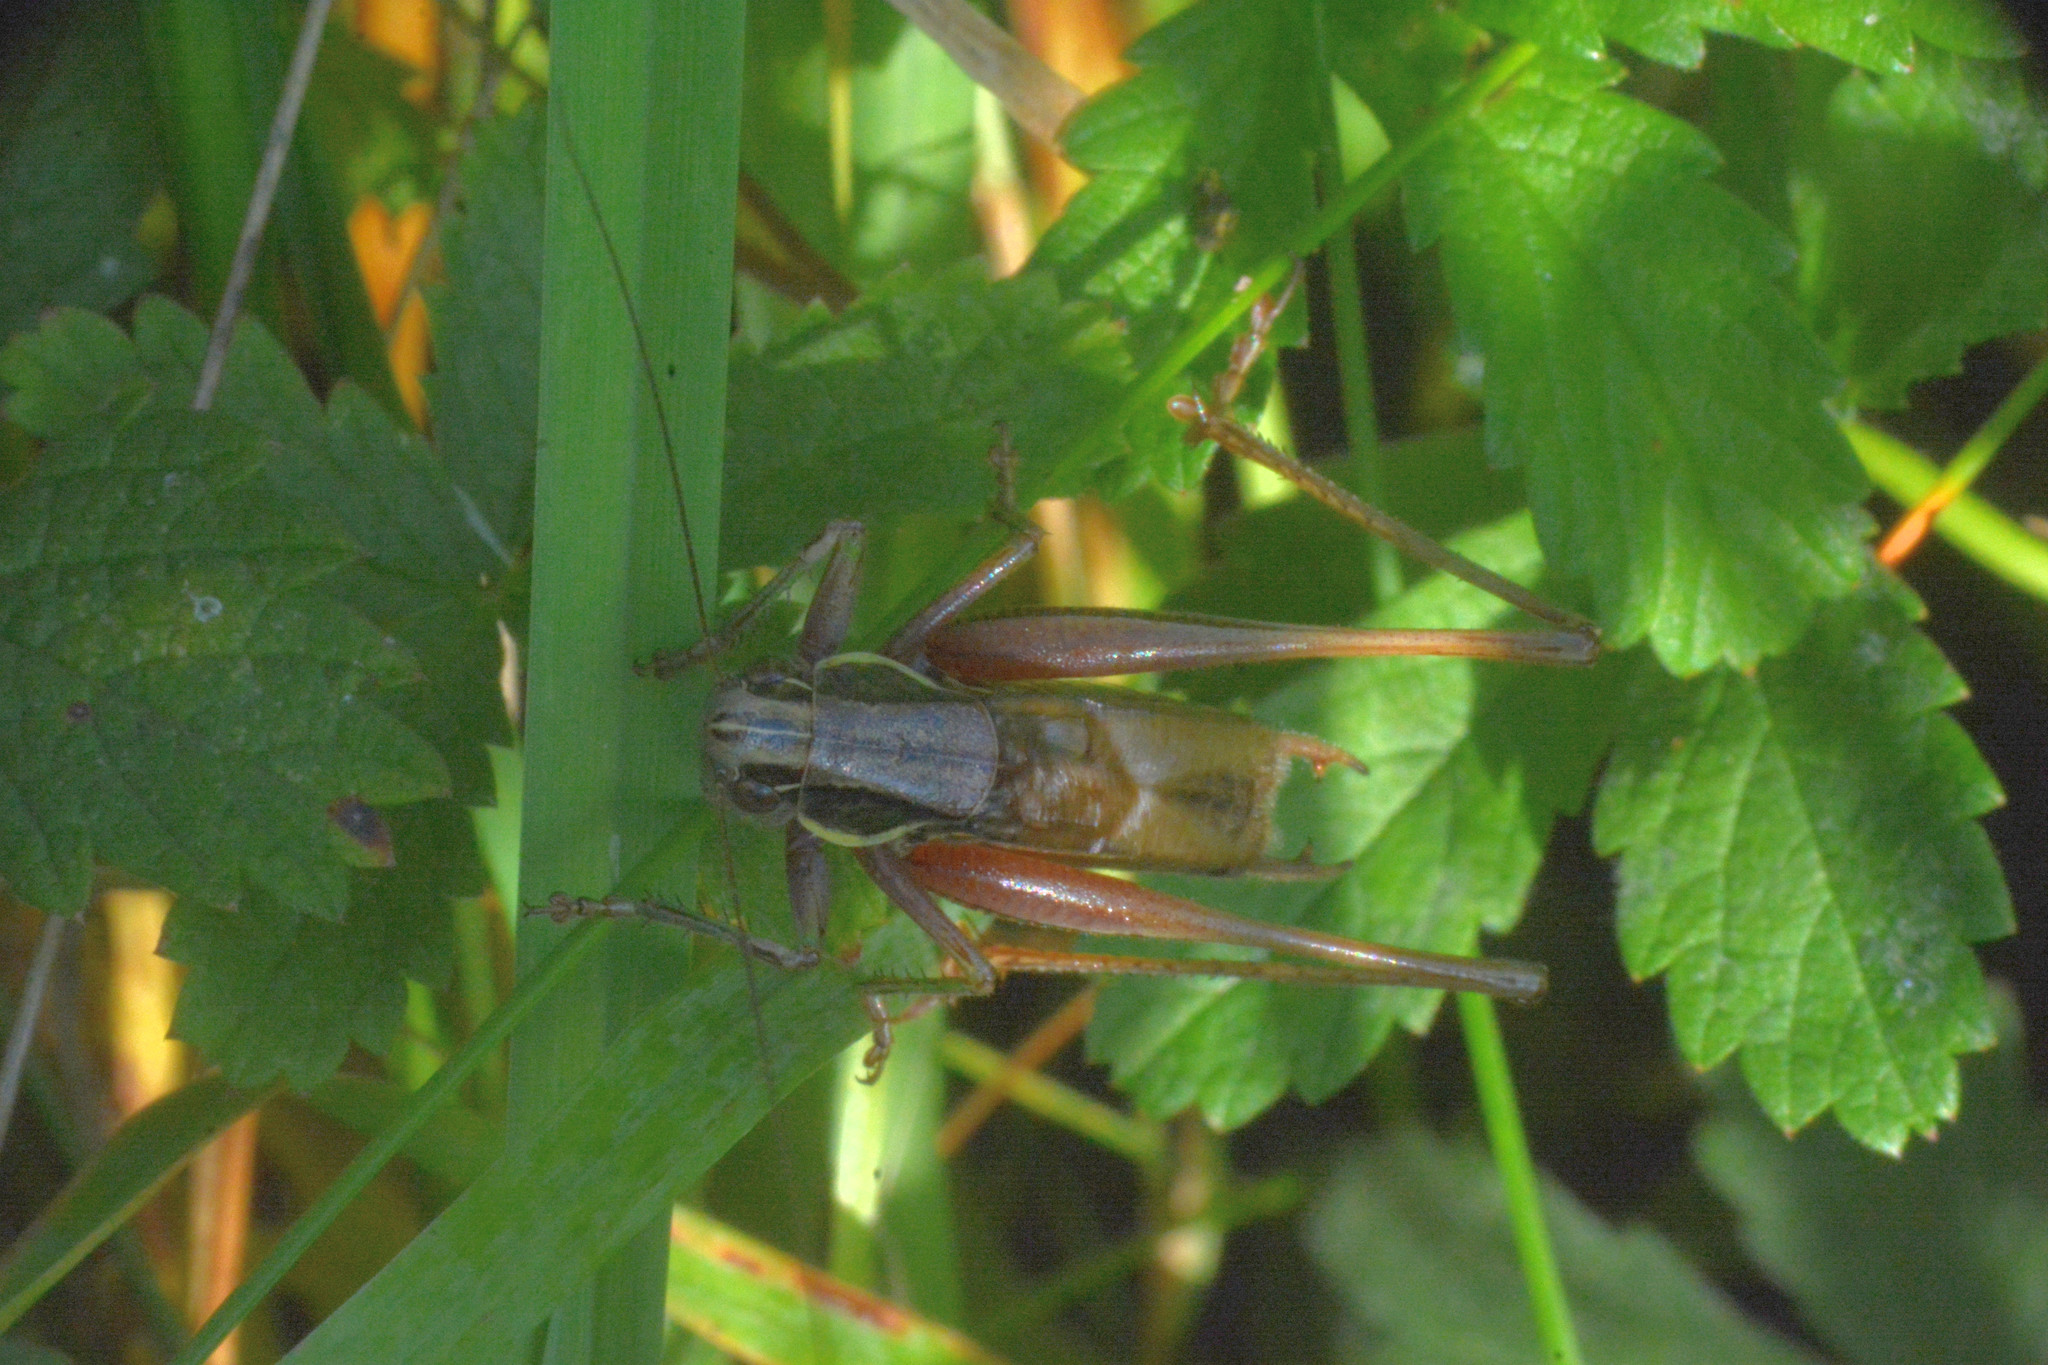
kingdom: Animalia
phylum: Arthropoda
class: Insecta
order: Orthoptera
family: Tettigoniidae
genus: Roeseliana
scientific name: Roeseliana roeselii
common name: Roesel's bush cricket
